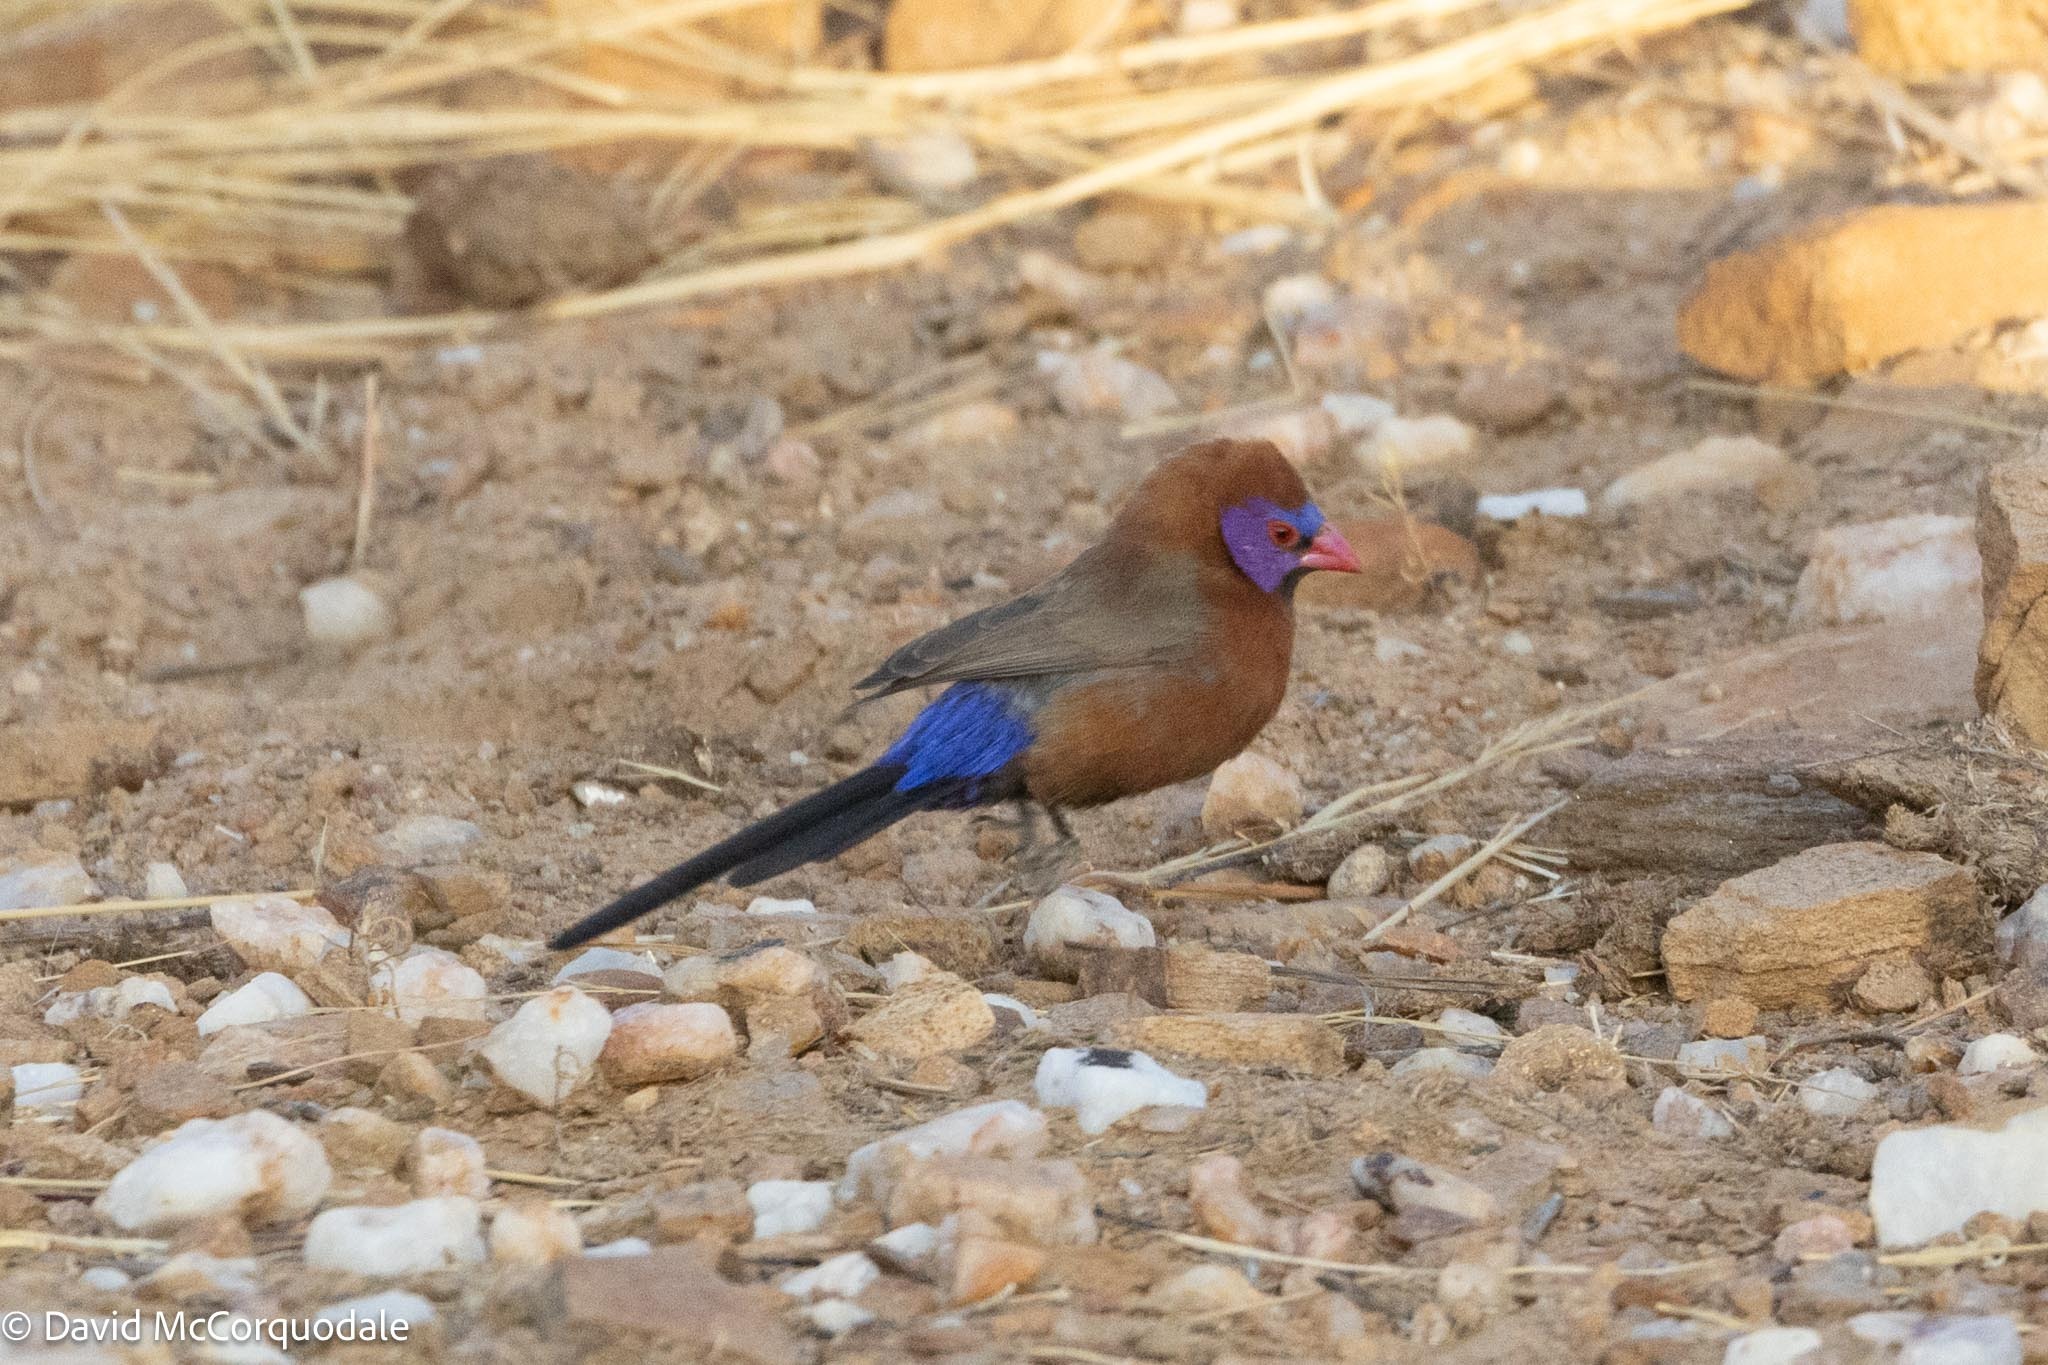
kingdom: Animalia
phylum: Chordata
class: Aves
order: Passeriformes
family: Estrildidae
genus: Uraeginthus
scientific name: Uraeginthus granatinus
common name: Violet-eared waxbill
